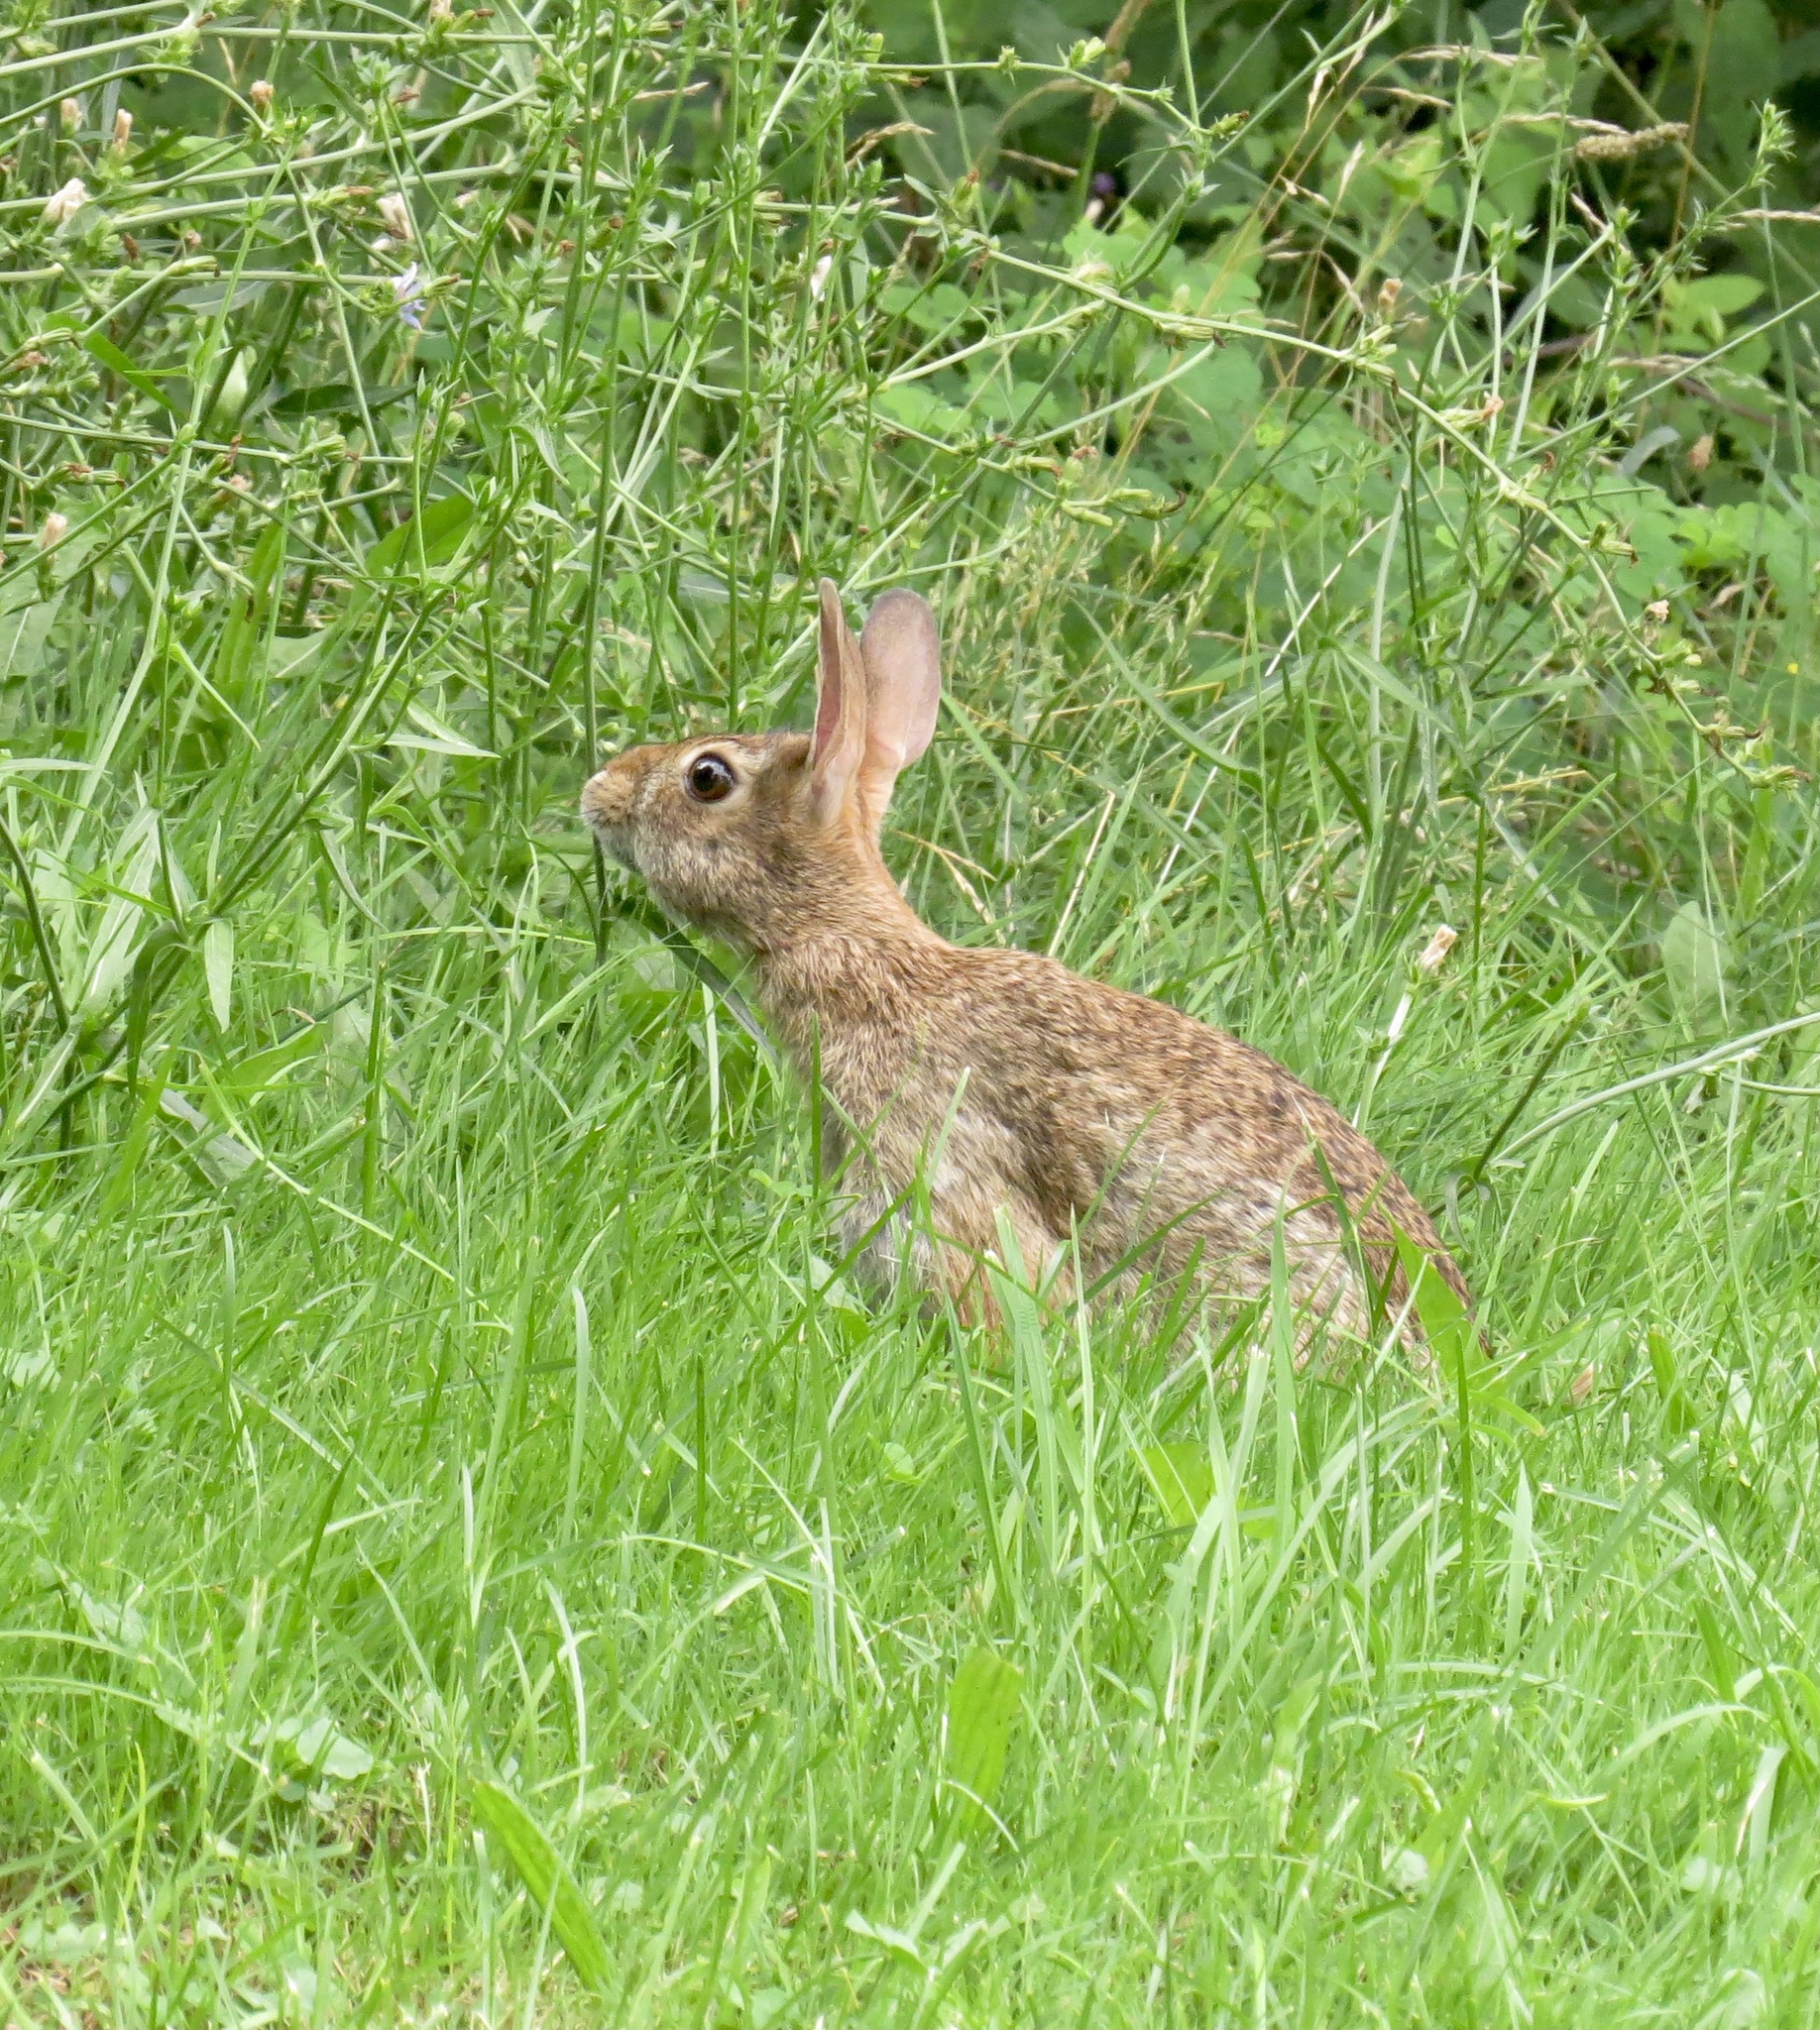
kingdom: Animalia
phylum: Chordata
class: Mammalia
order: Lagomorpha
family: Leporidae
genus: Sylvilagus
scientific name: Sylvilagus floridanus
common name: Eastern cottontail
